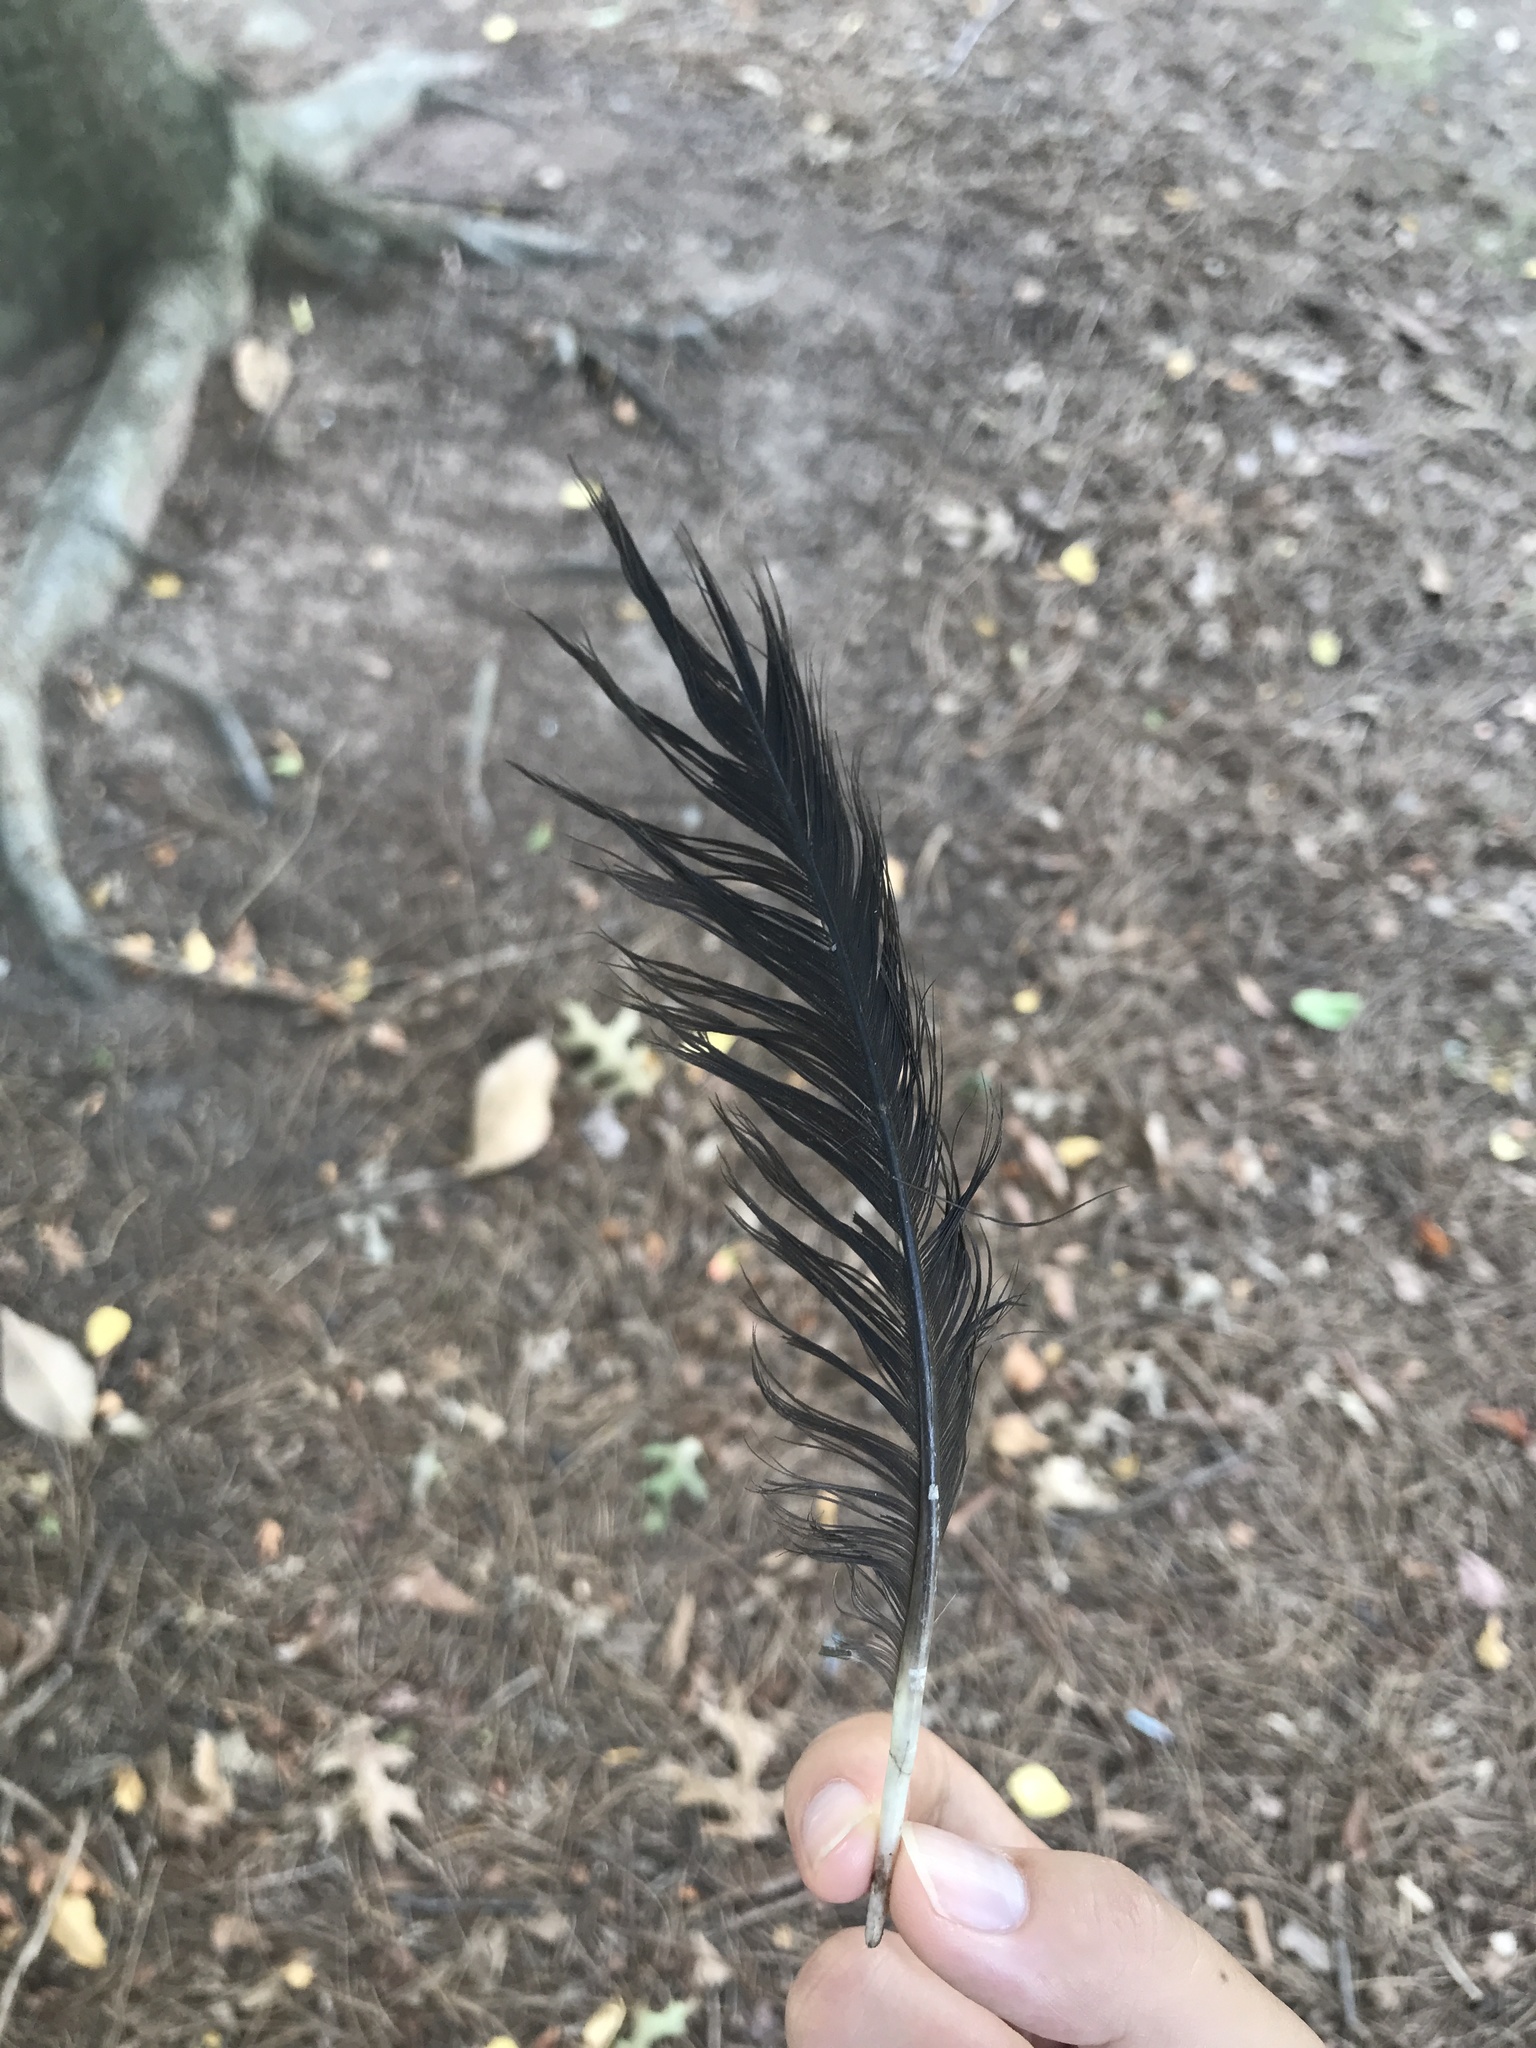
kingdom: Animalia
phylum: Chordata
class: Aves
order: Passeriformes
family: Corvidae
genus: Corvus
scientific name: Corvus brachyrhynchos
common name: American crow
